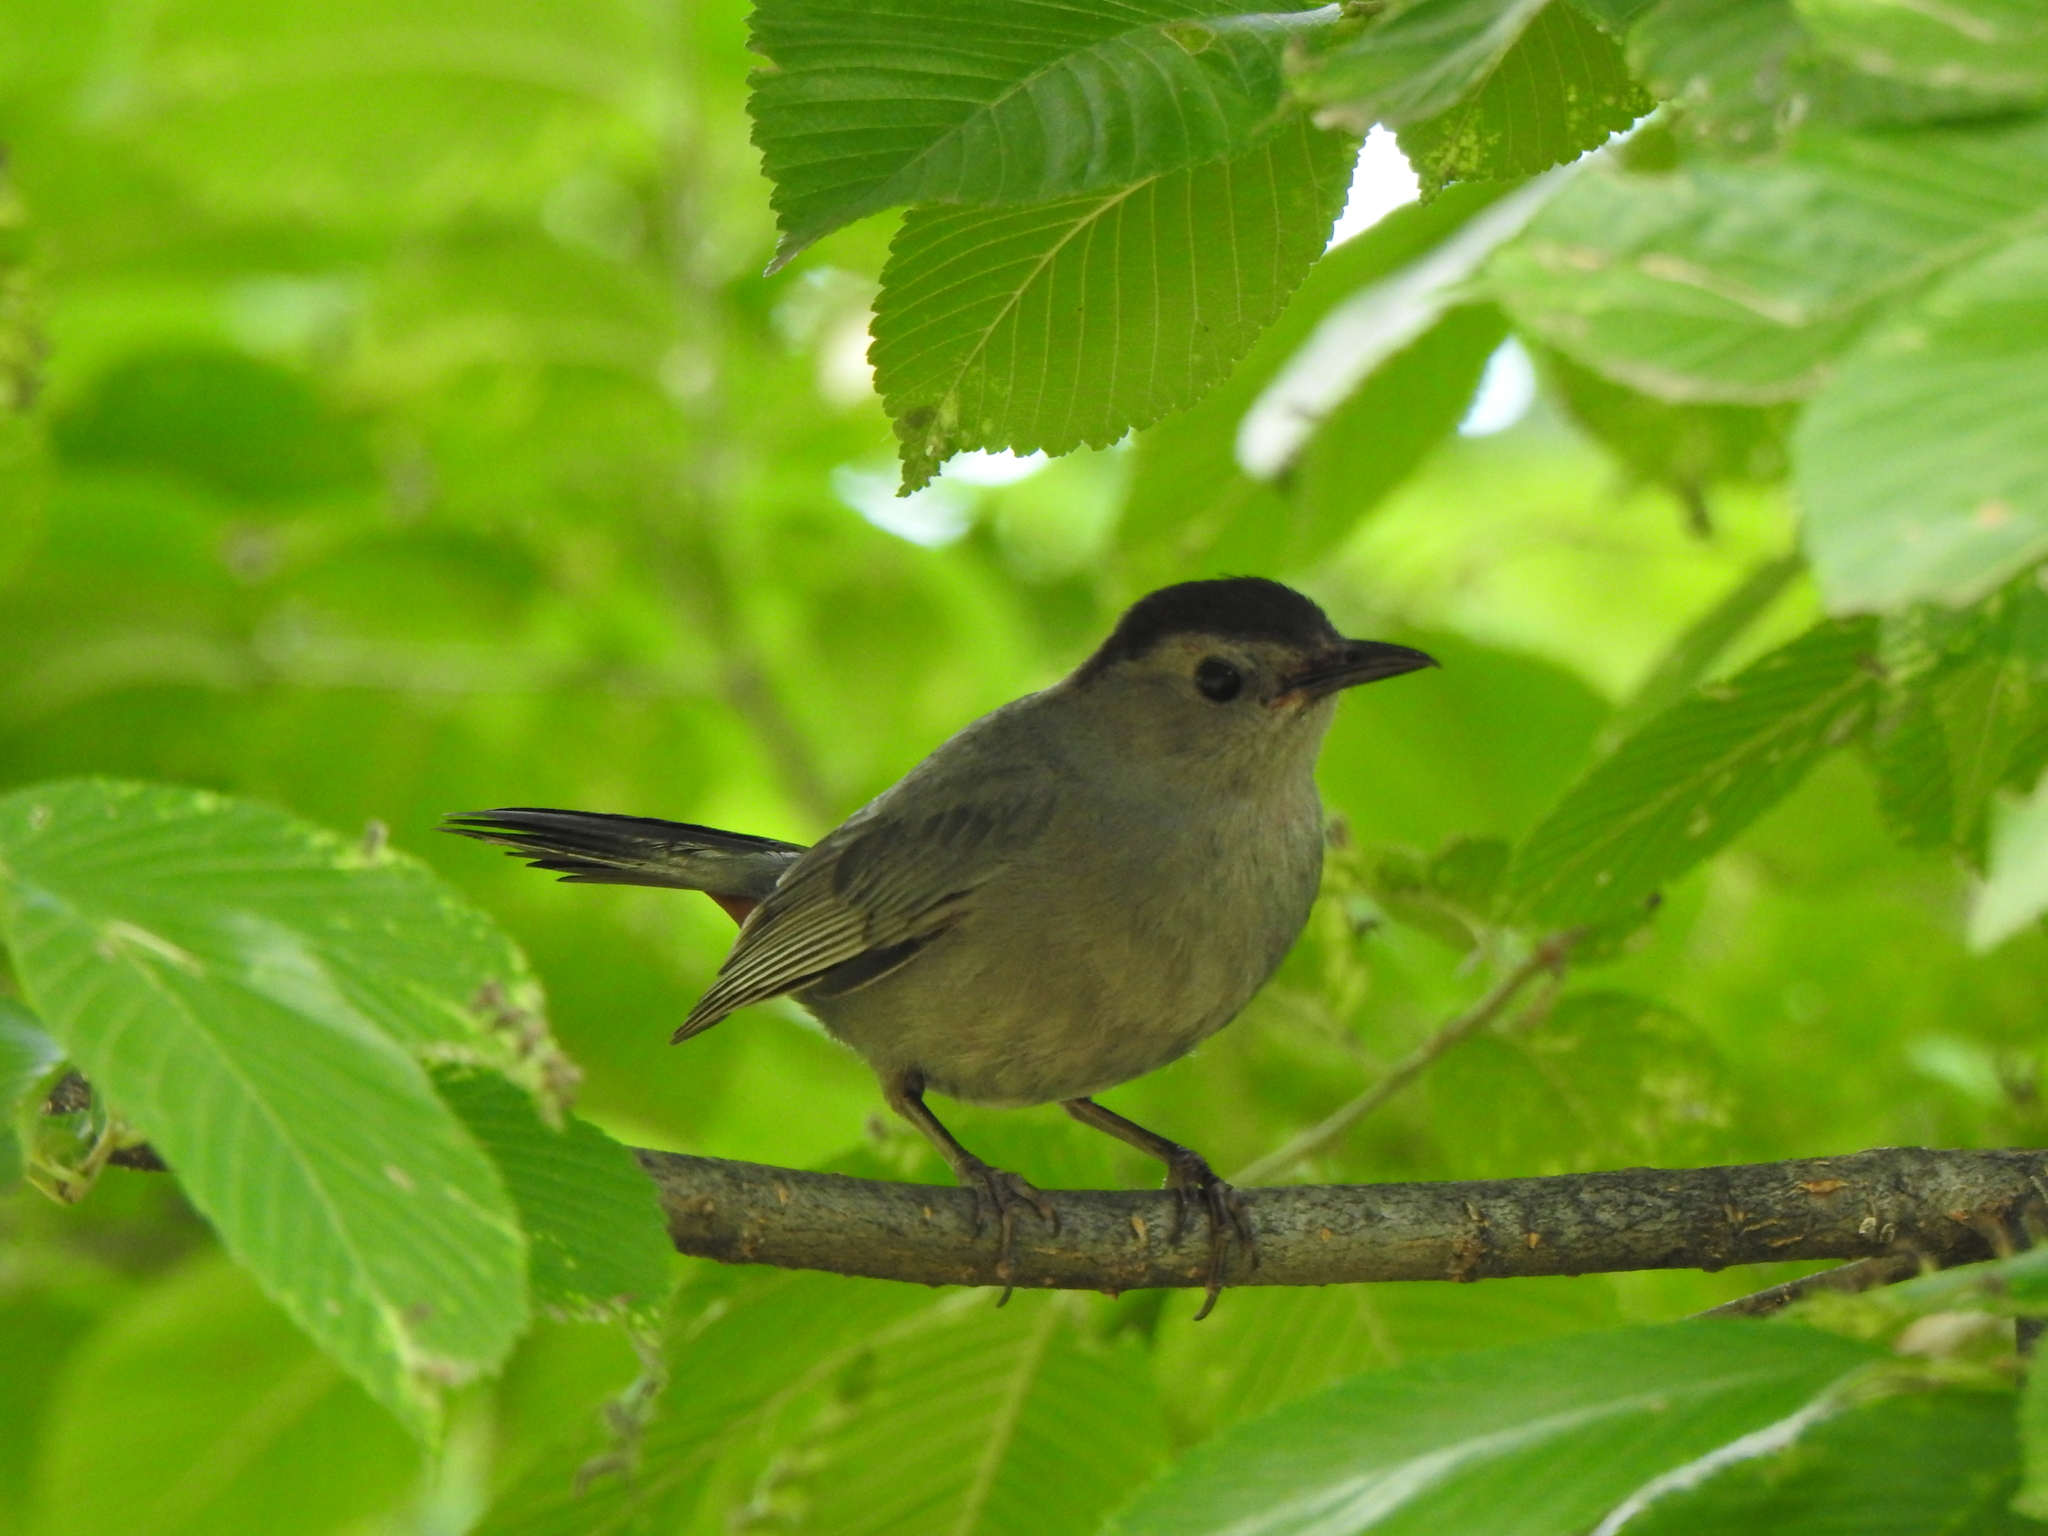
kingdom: Animalia
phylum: Chordata
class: Aves
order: Passeriformes
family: Mimidae
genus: Dumetella
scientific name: Dumetella carolinensis
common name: Gray catbird
